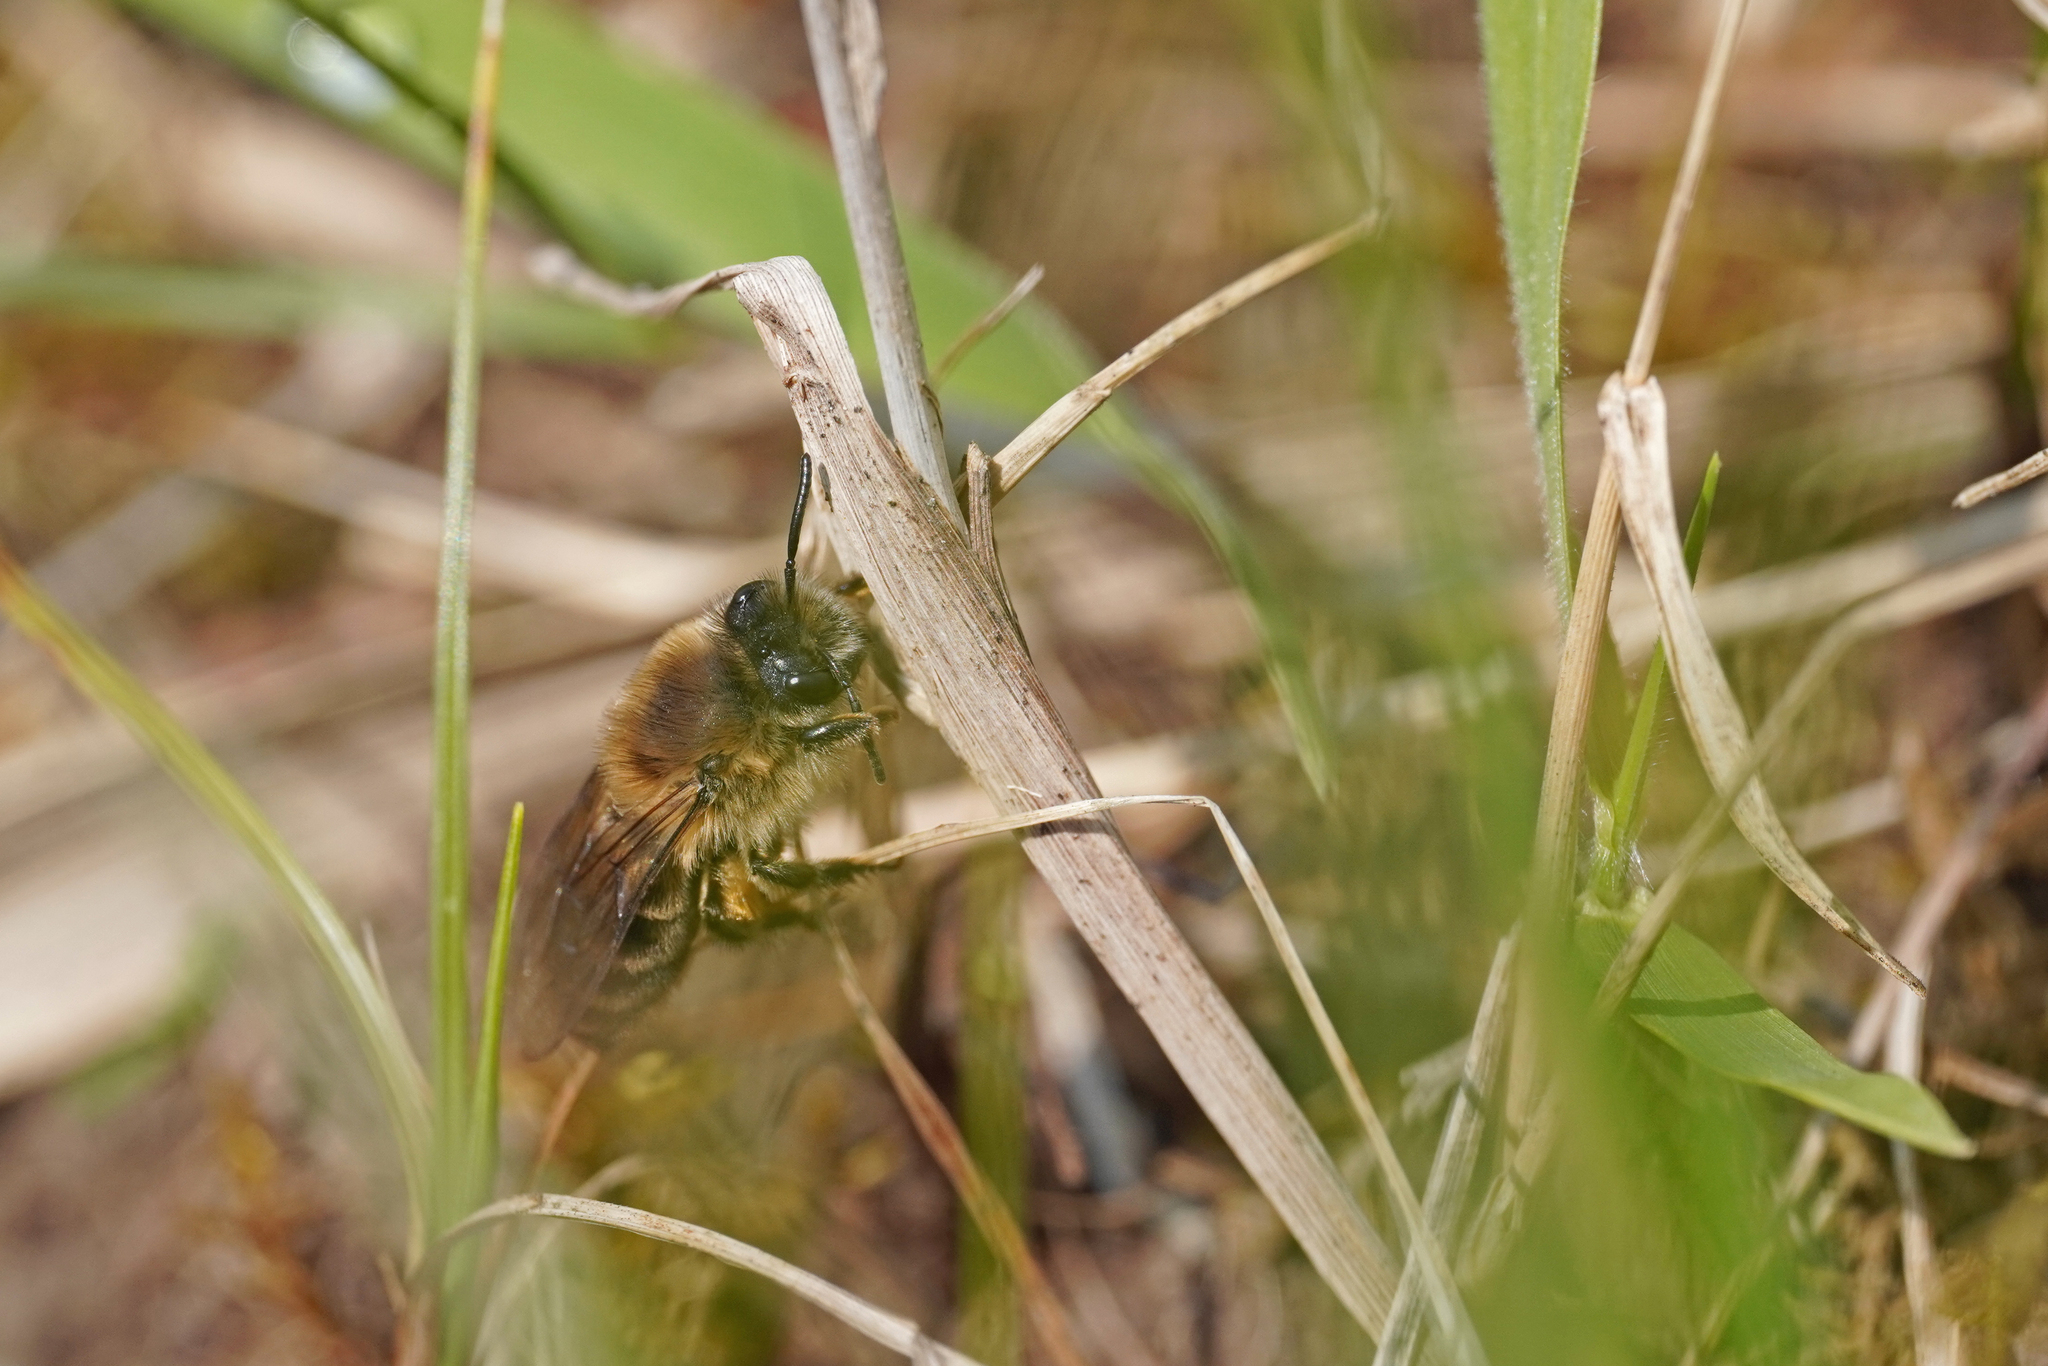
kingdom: Animalia
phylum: Arthropoda
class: Insecta
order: Hymenoptera
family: Colletidae
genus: Colletes
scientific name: Colletes cunicularius
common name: Early colletes
